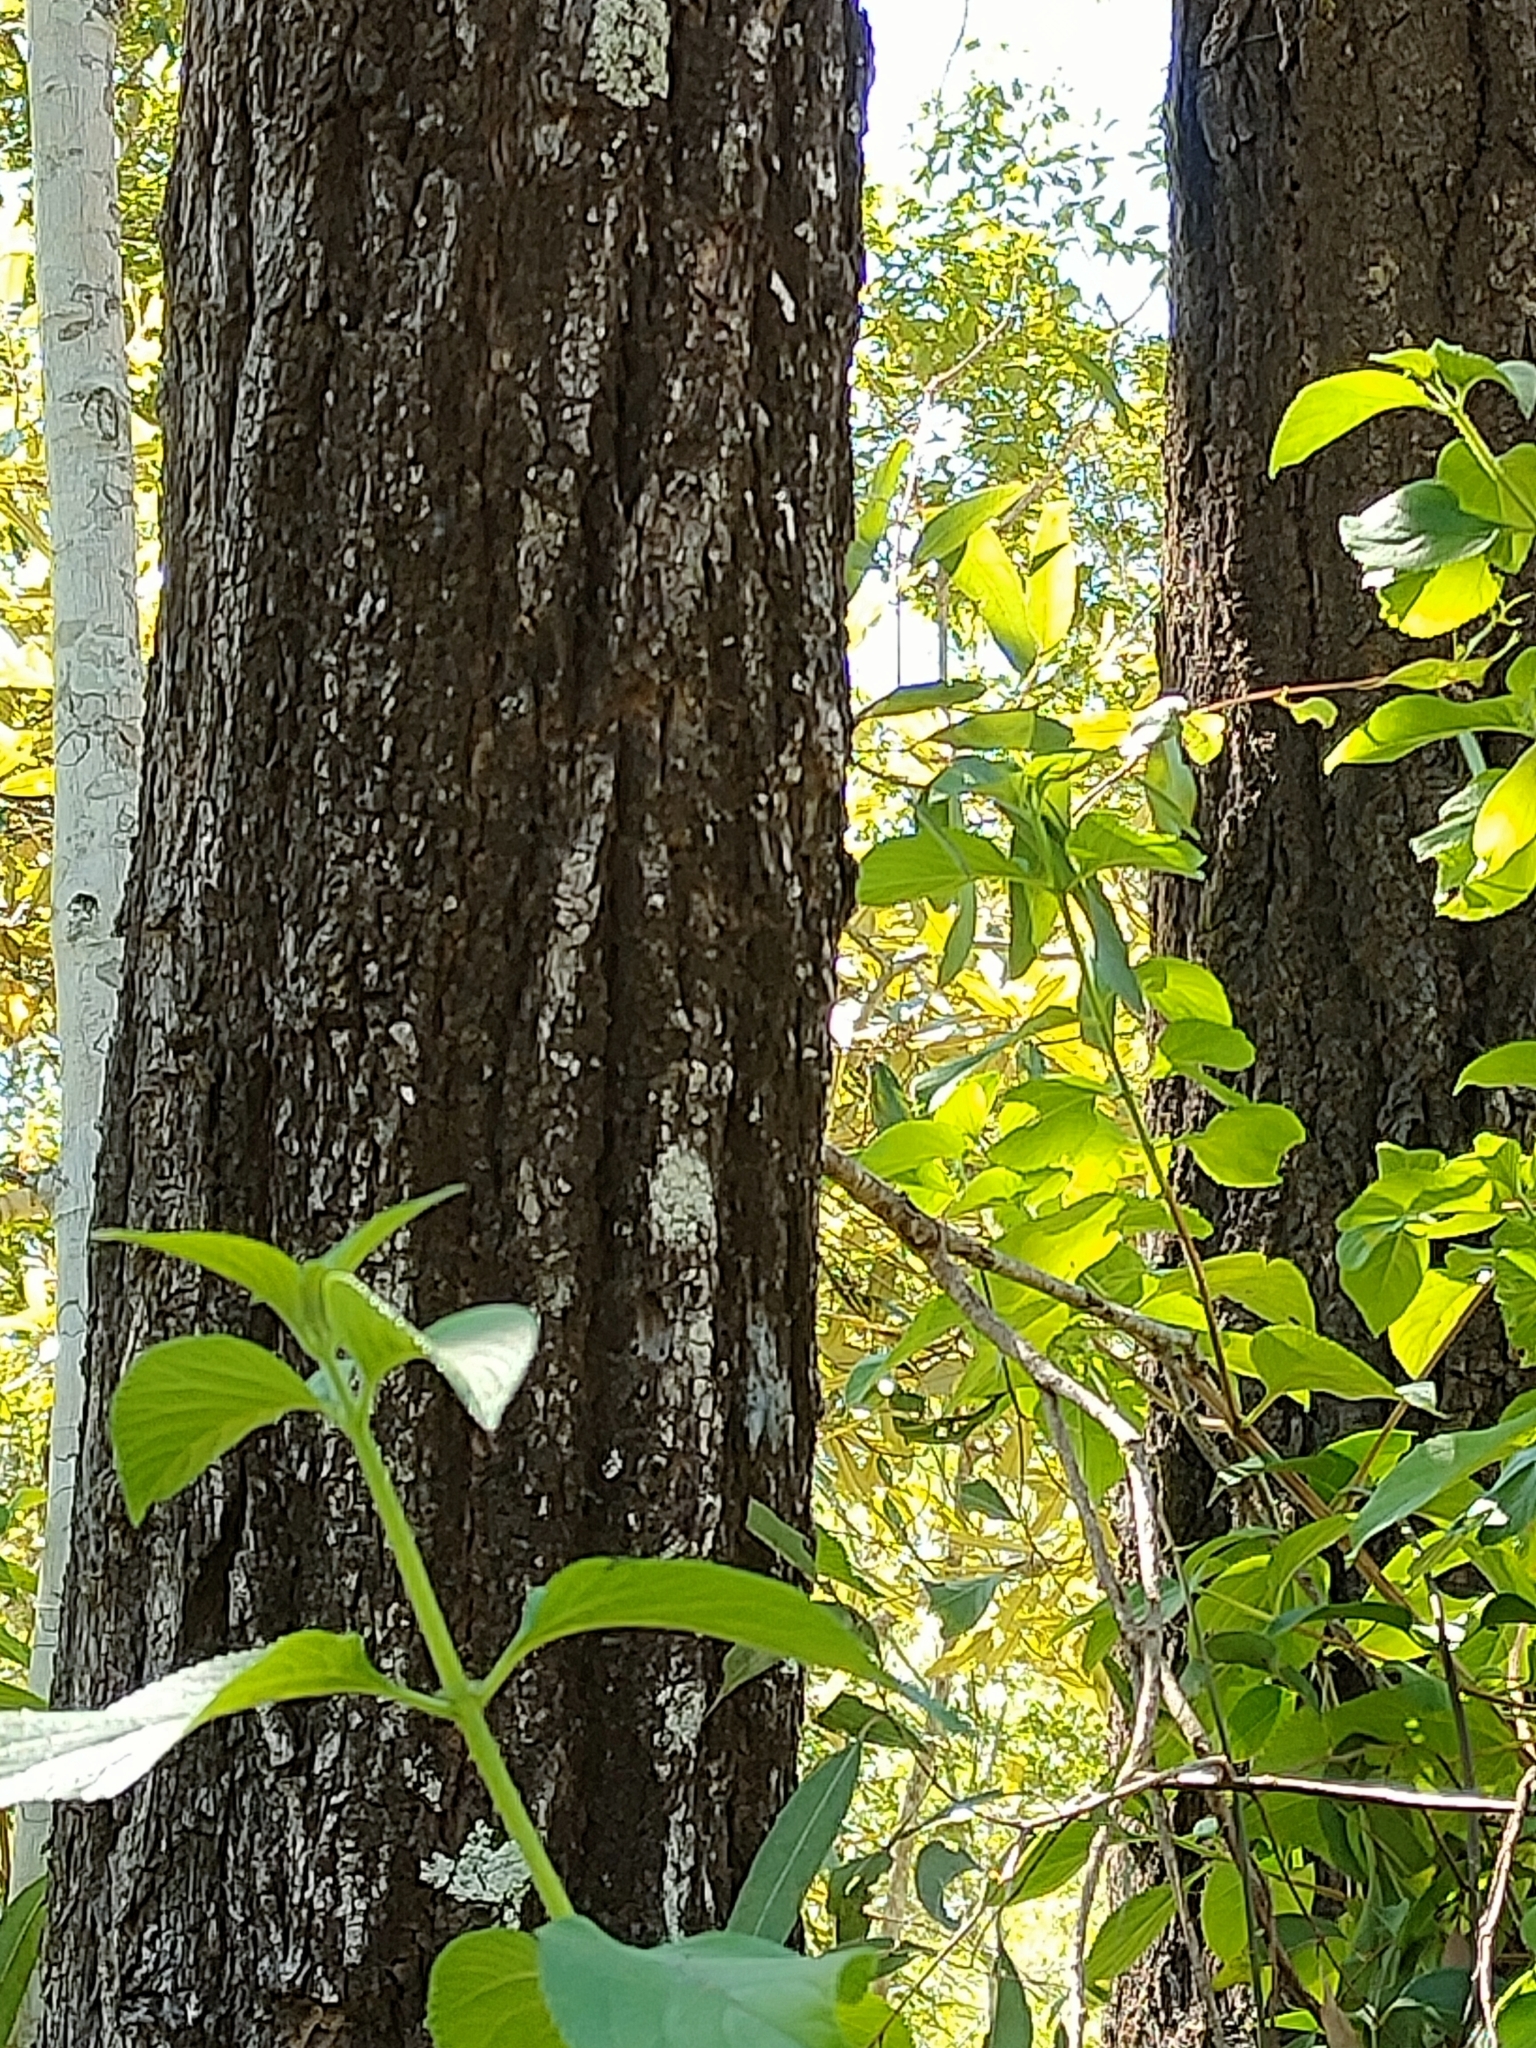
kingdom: Plantae
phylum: Tracheophyta
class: Magnoliopsida
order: Myrtales
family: Myrtaceae
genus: Eucalyptus
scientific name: Eucalyptus siderophloia
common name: Broad-leafed-ironbark
